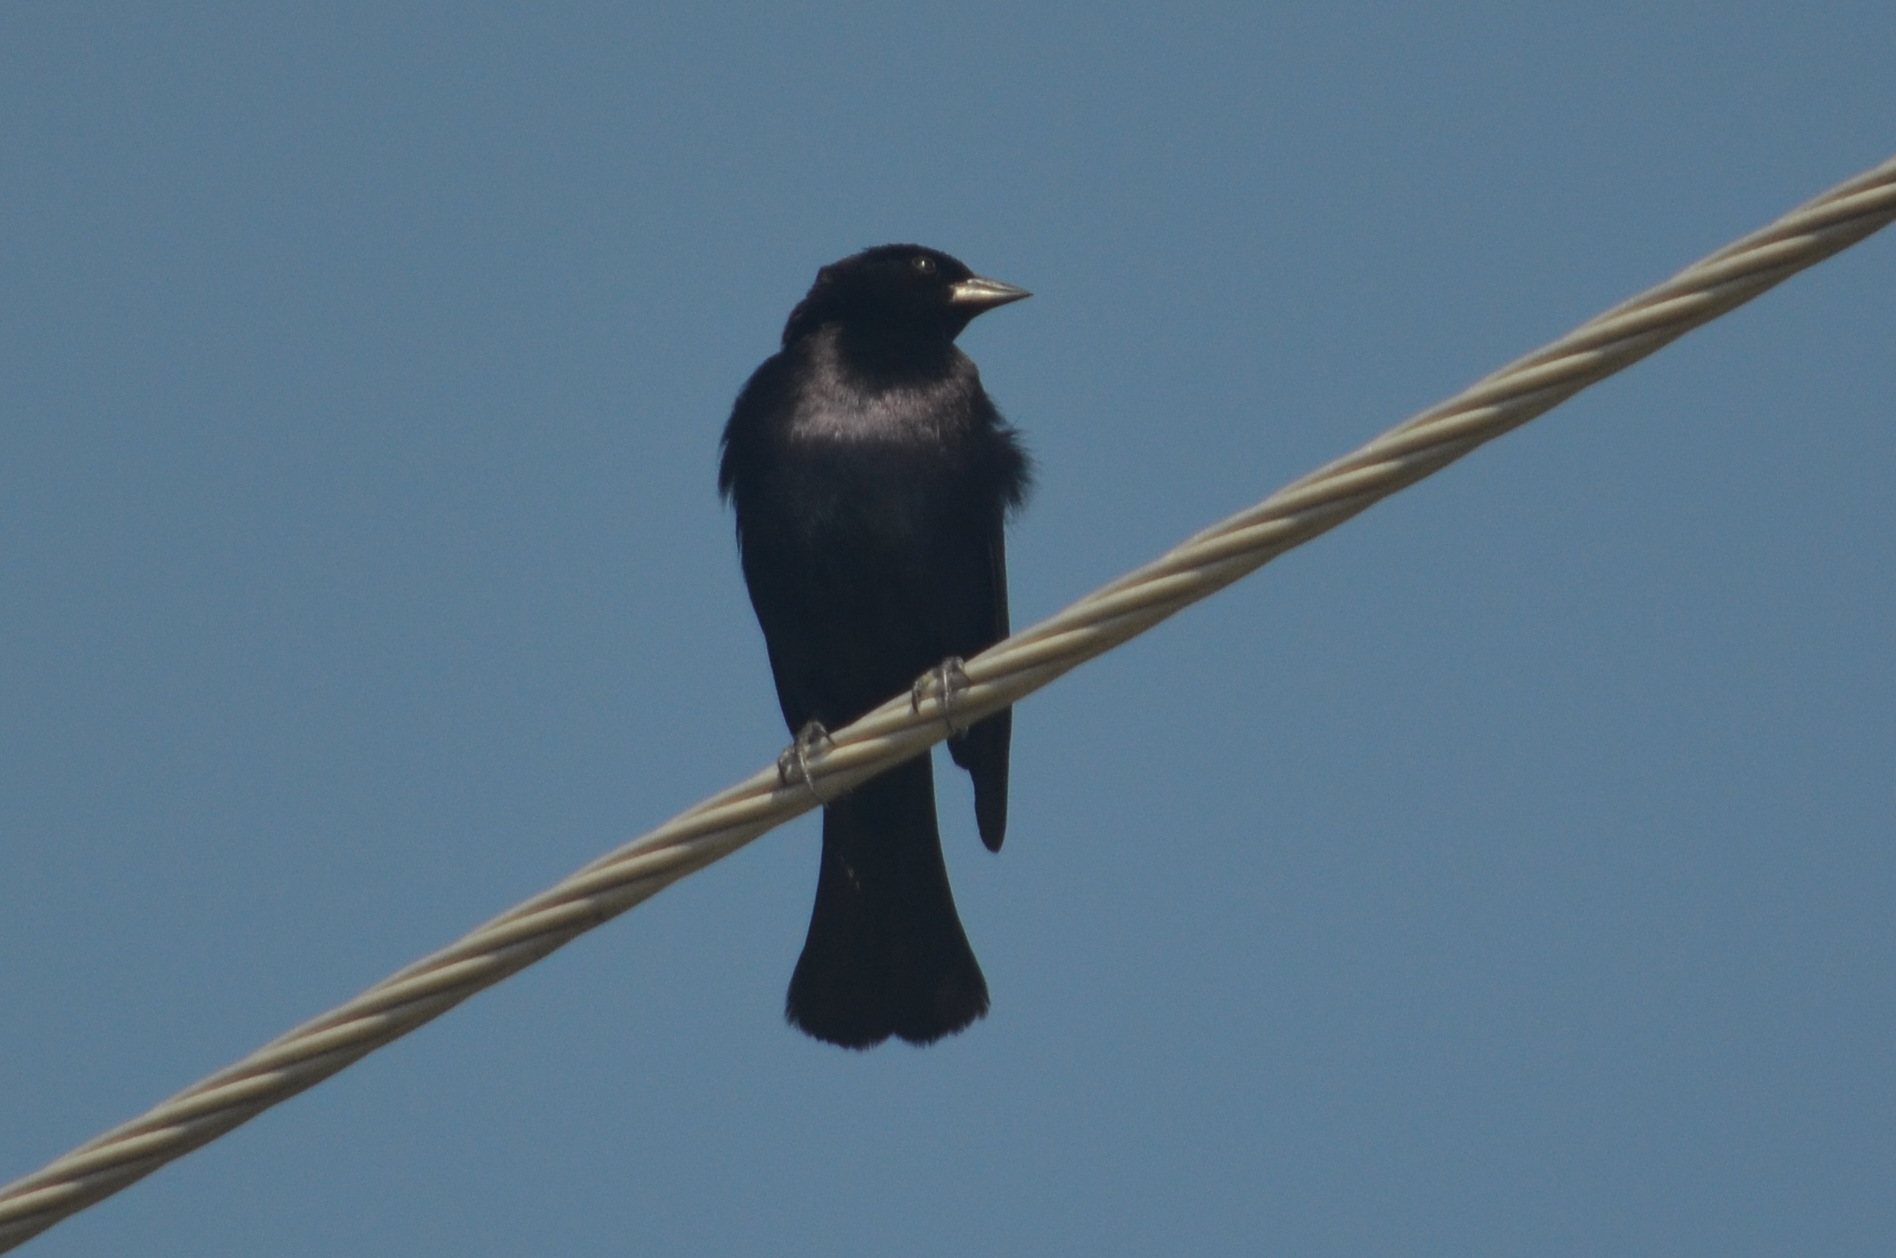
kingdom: Animalia
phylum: Chordata
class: Aves
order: Passeriformes
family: Icteridae
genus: Molothrus
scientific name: Molothrus bonariensis
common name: Shiny cowbird
